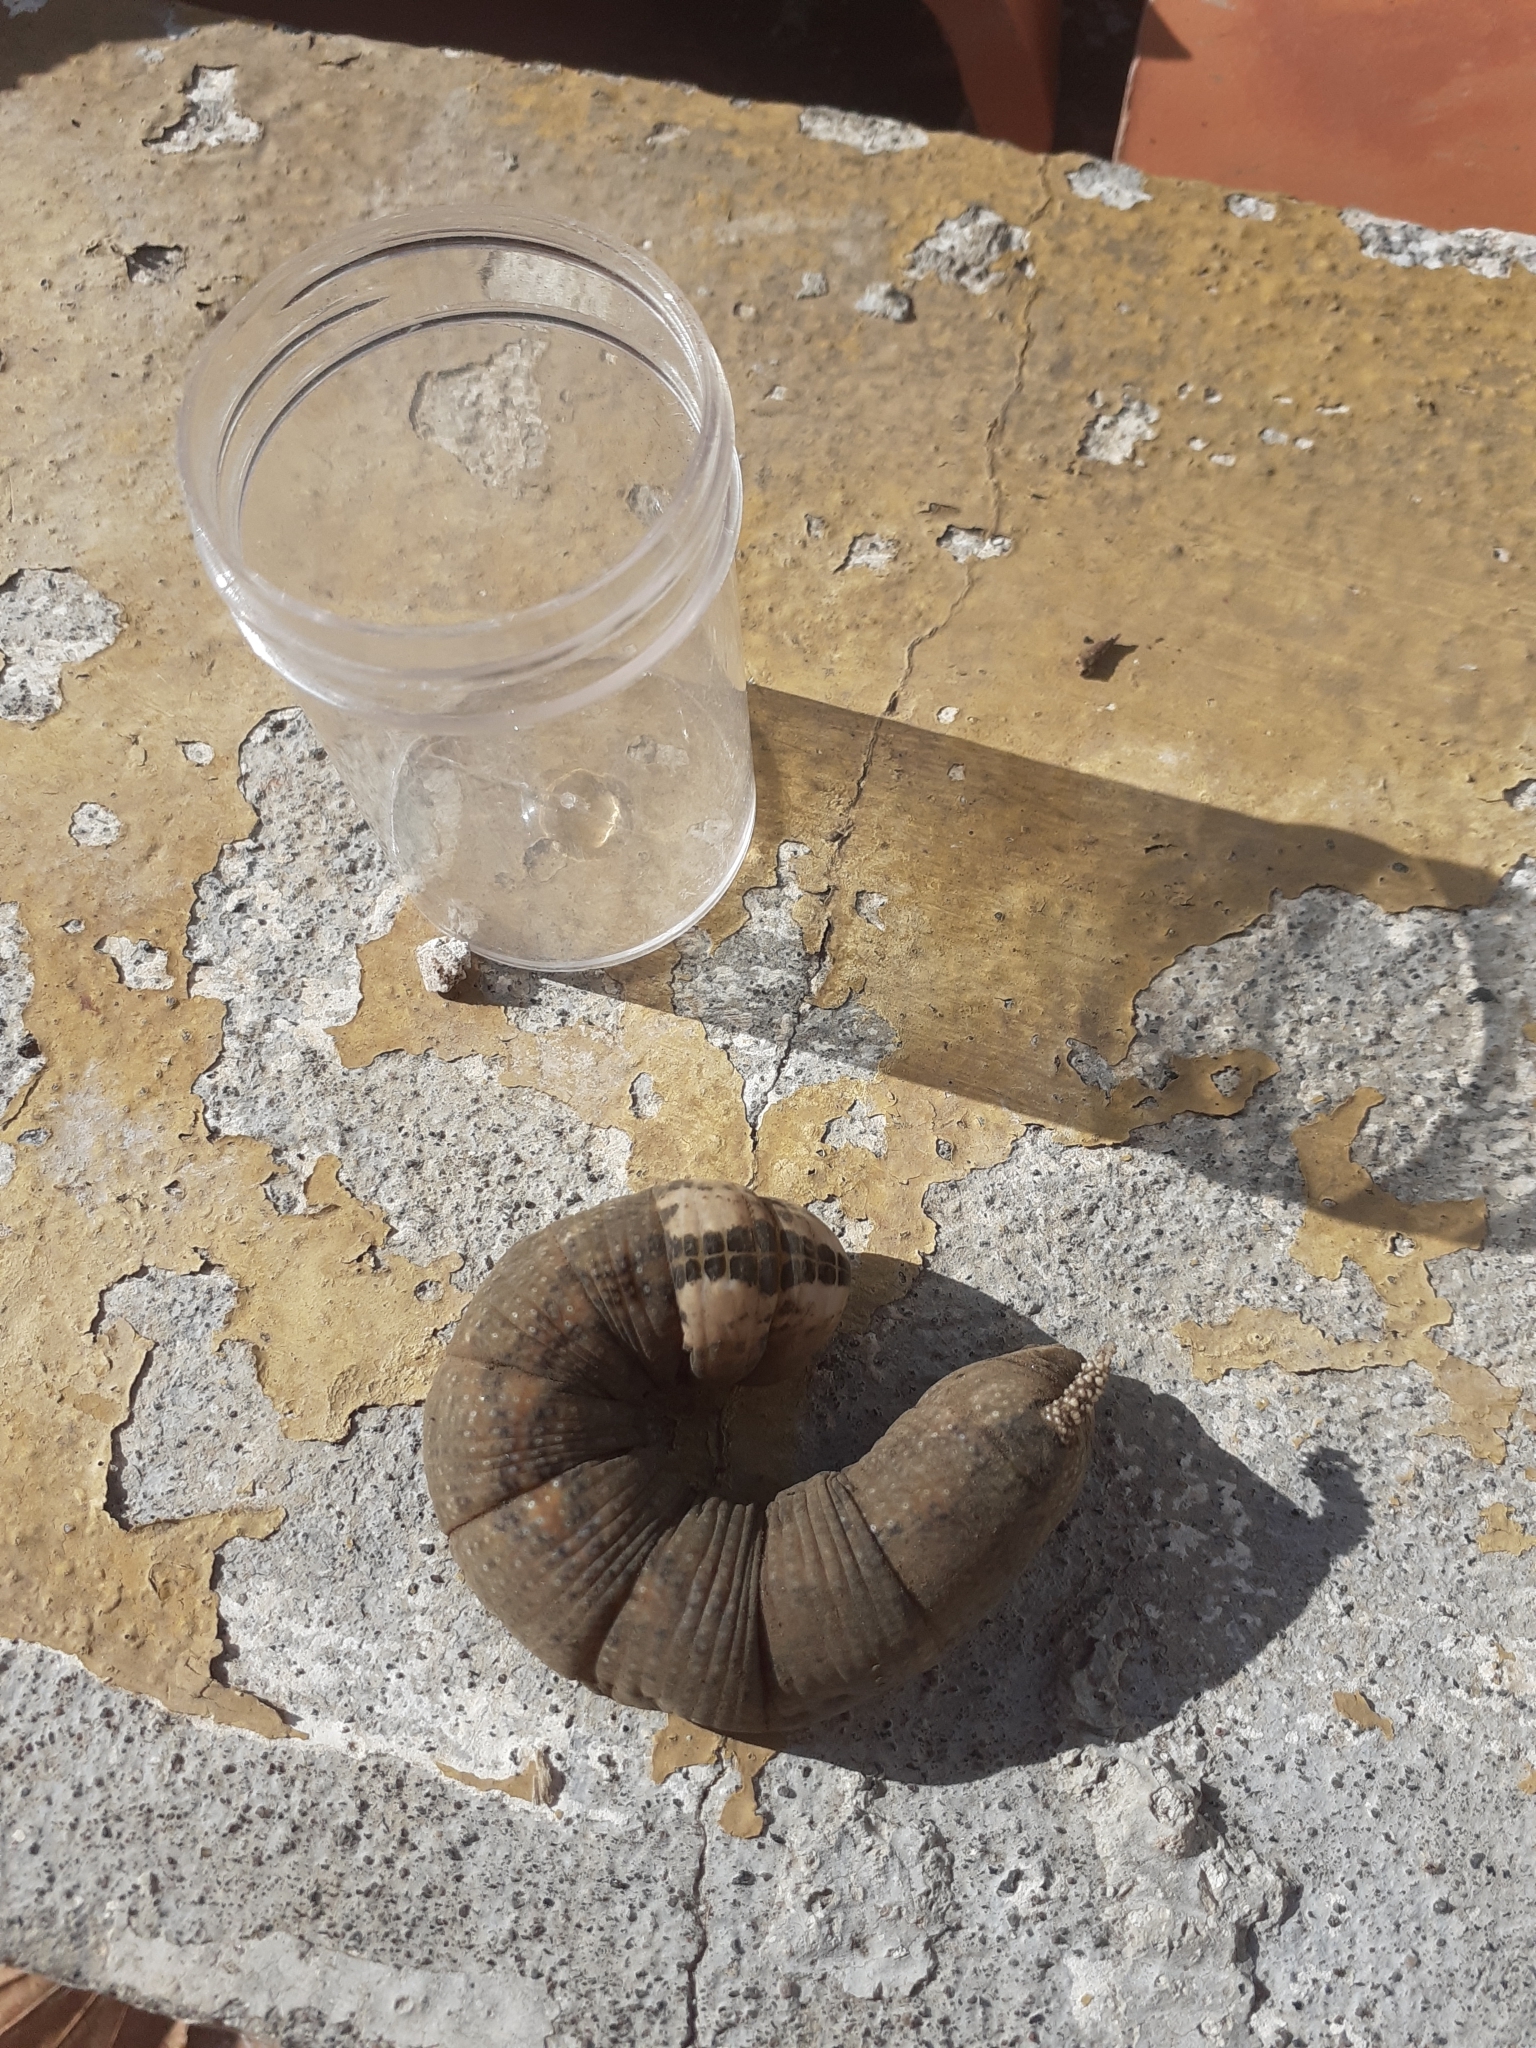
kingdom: Animalia
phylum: Arthropoda
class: Insecta
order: Lepidoptera
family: Sphingidae
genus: Acherontia
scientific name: Acherontia atropos
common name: Death's-head hawk moth
